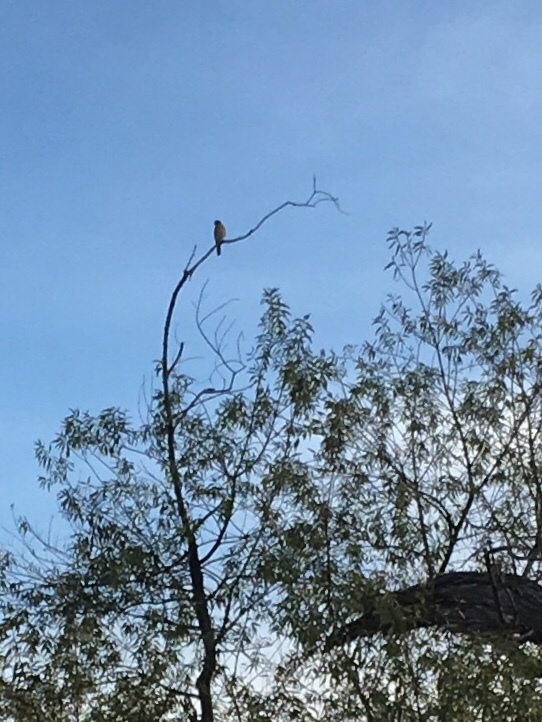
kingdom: Animalia
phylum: Chordata
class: Aves
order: Falconiformes
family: Falconidae
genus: Falco
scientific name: Falco sparverius
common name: American kestrel
